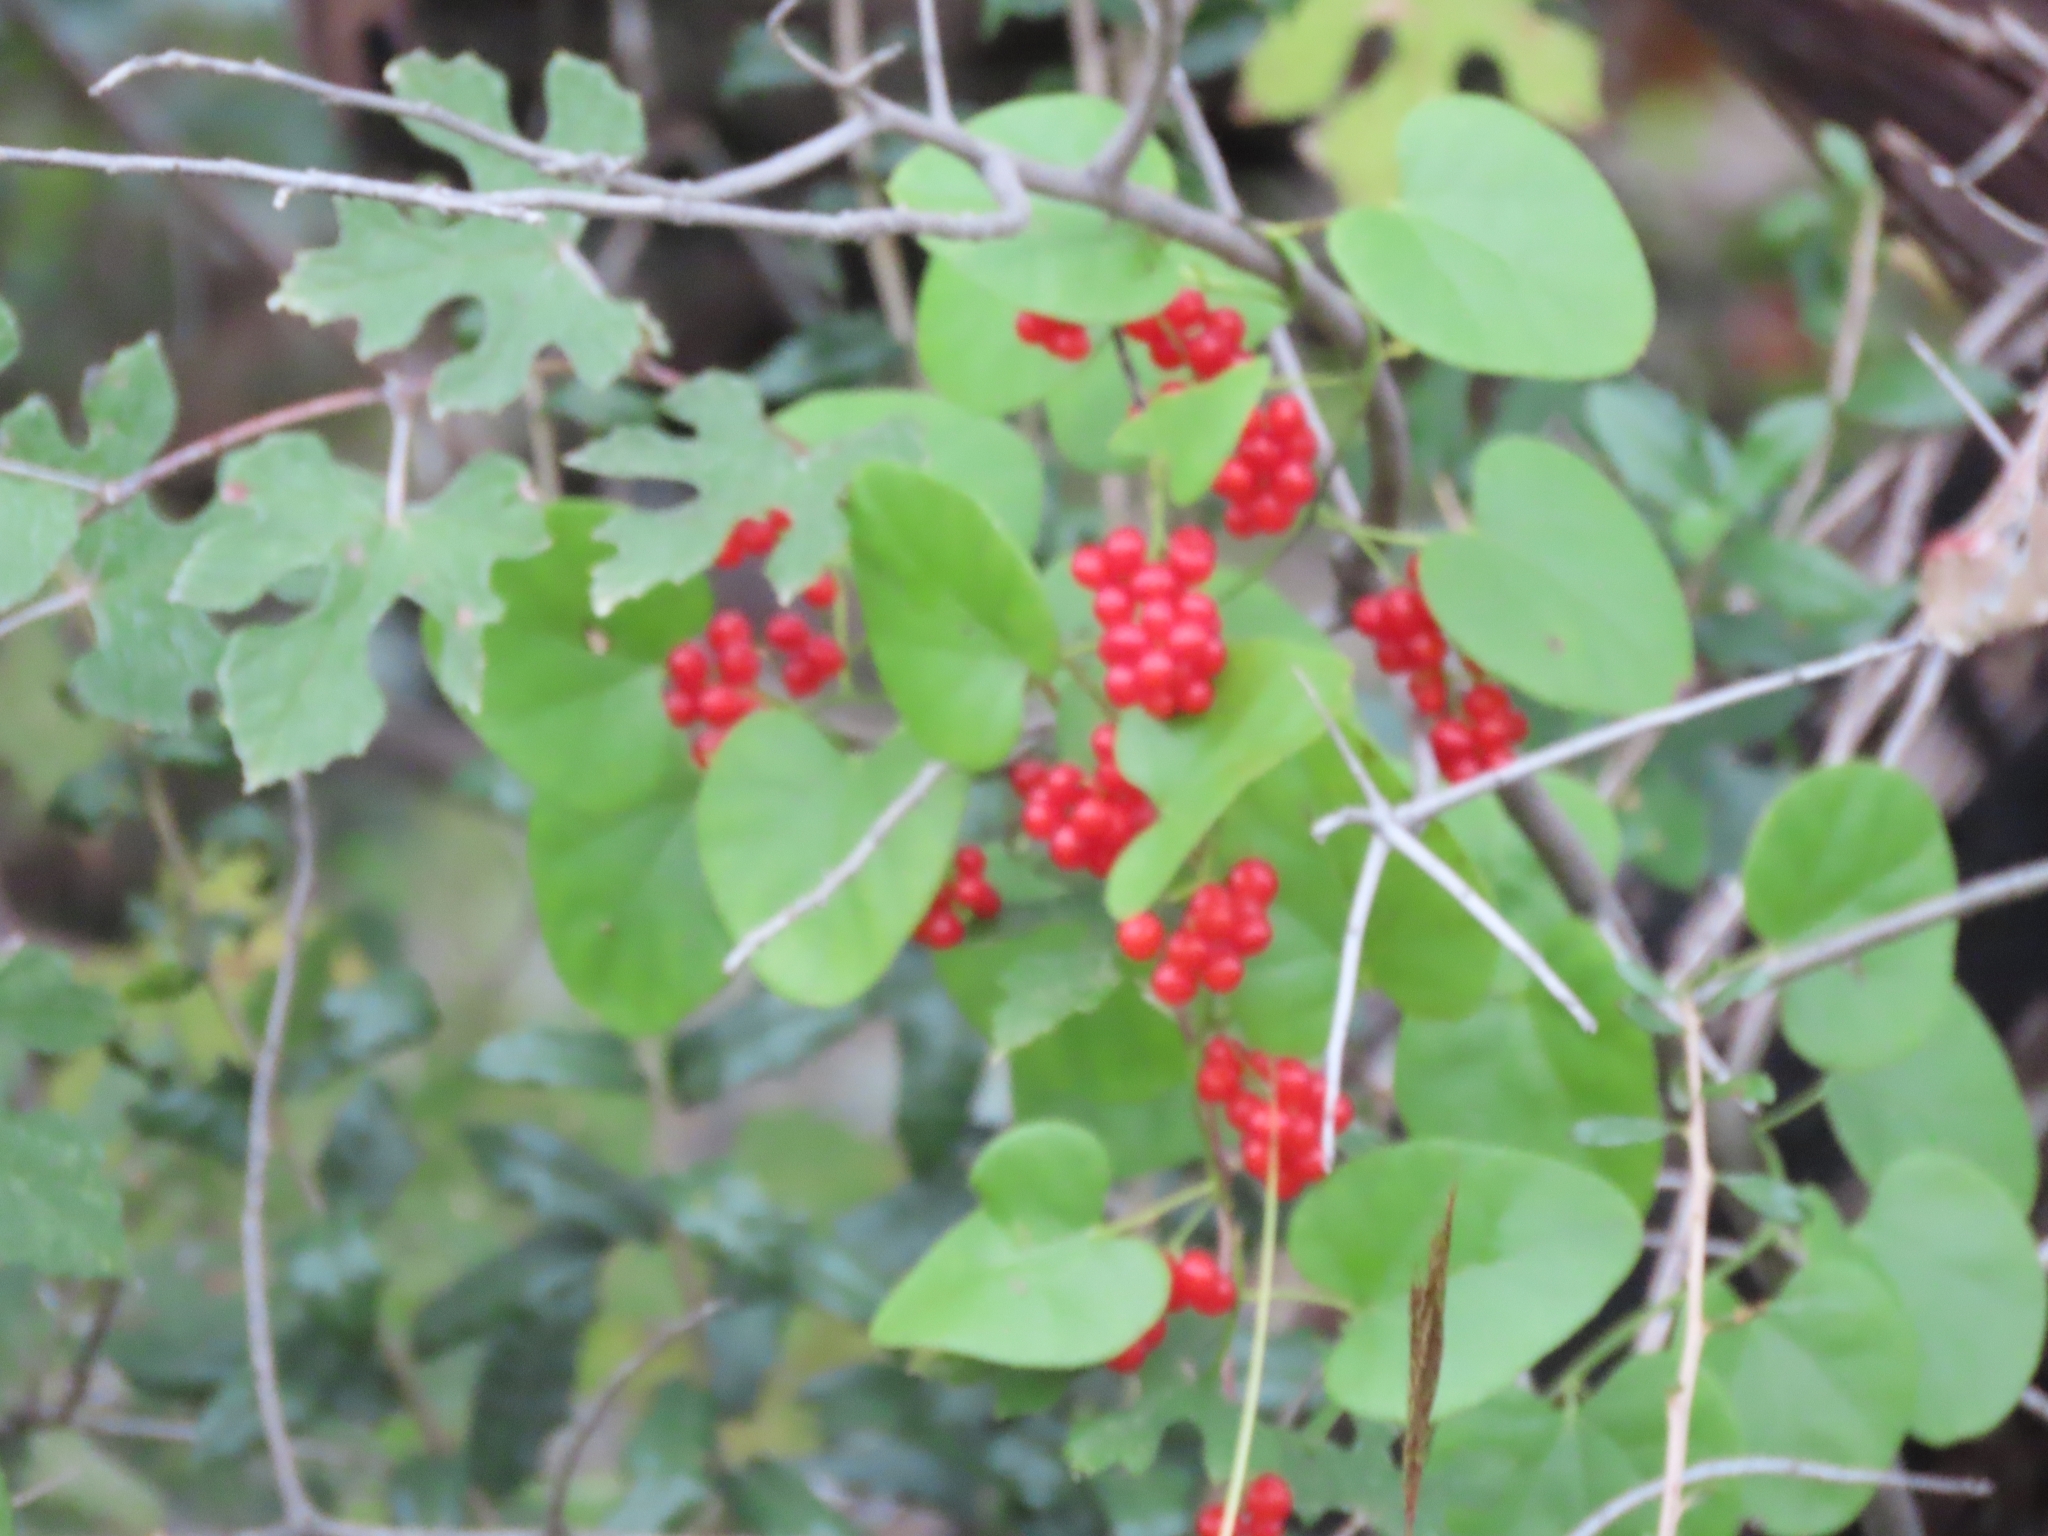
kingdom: Plantae
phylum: Tracheophyta
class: Magnoliopsida
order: Ranunculales
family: Menispermaceae
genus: Cocculus
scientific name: Cocculus carolinus
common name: Carolina moonseed
